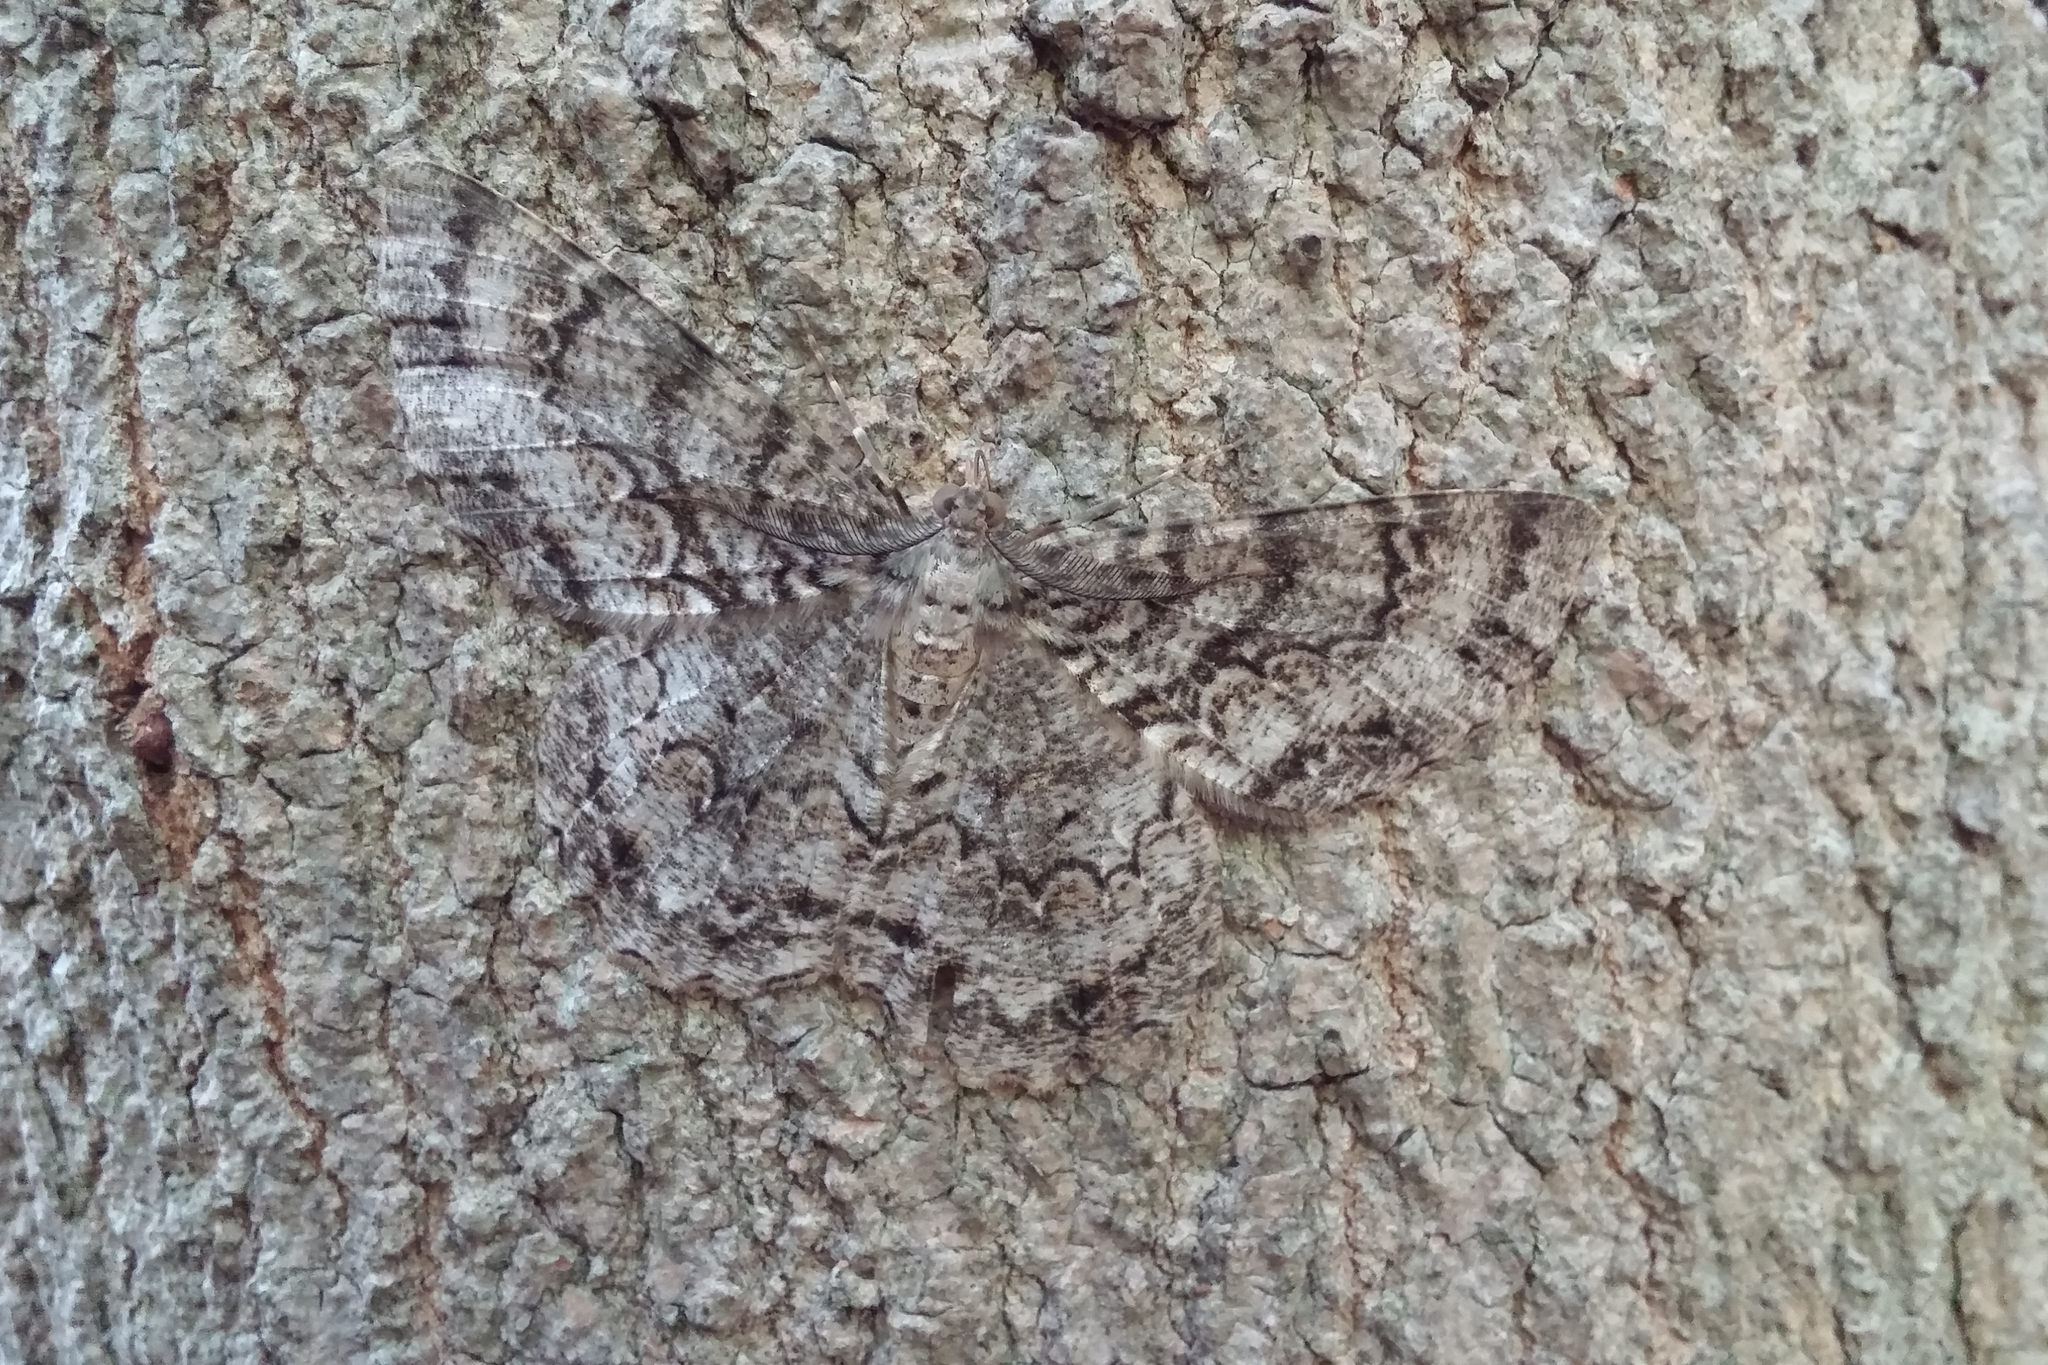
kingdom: Animalia
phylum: Arthropoda
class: Insecta
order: Lepidoptera
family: Geometridae
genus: Epimecis
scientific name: Epimecis hortaria
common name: Tulip-tree beauty
